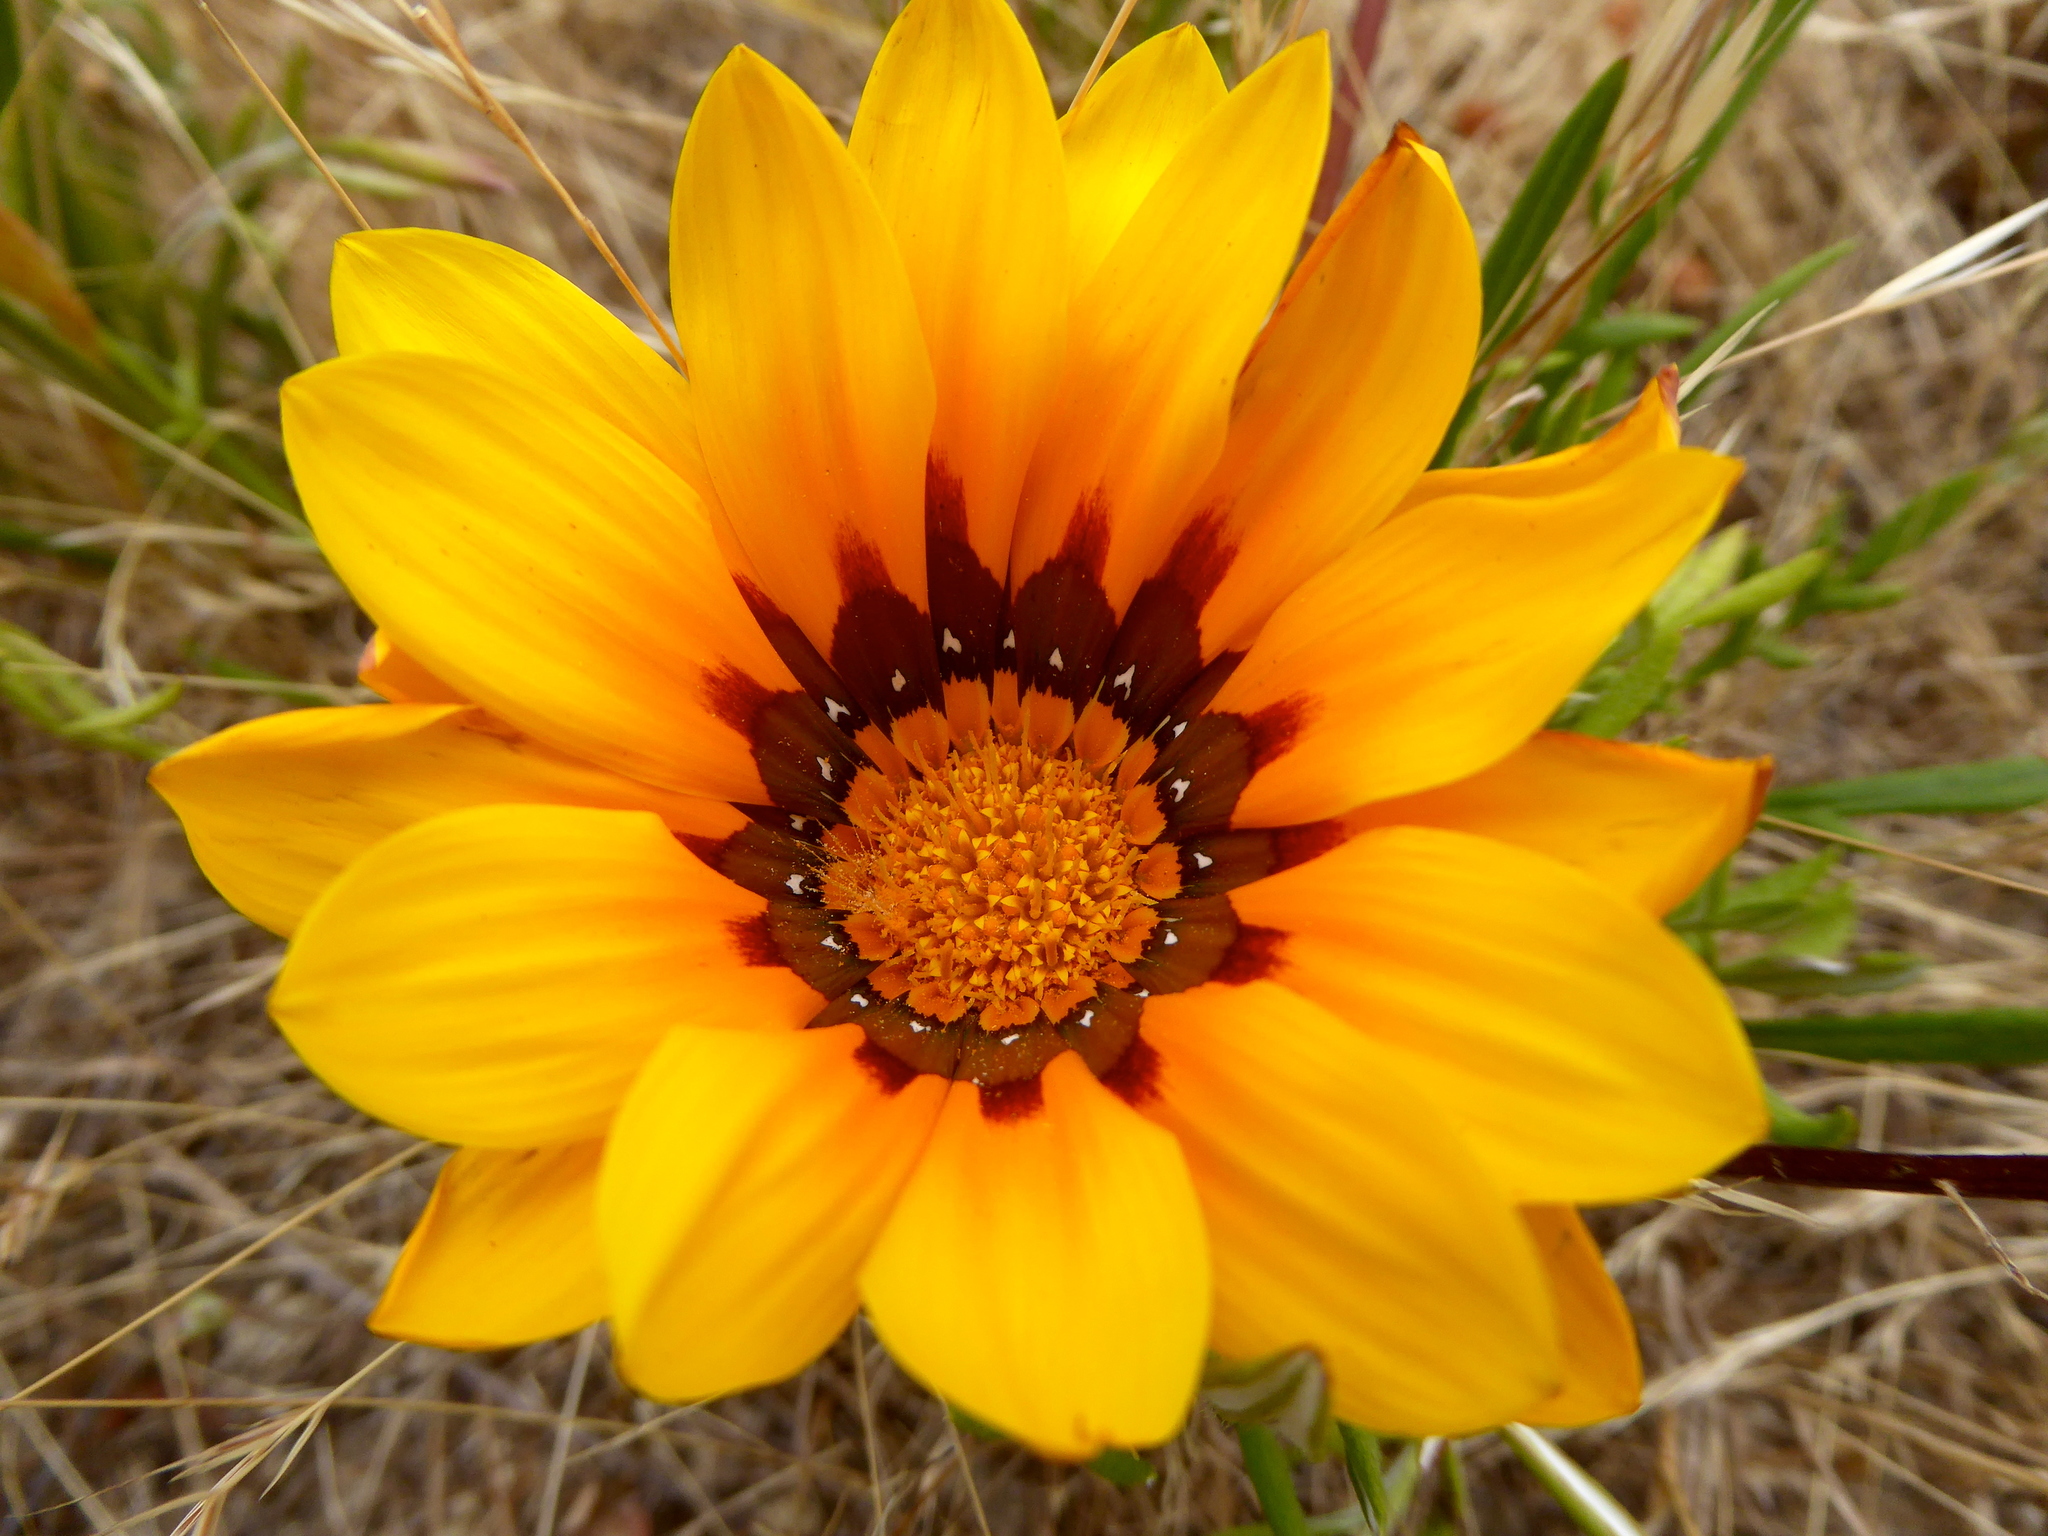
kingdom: Plantae
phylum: Tracheophyta
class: Magnoliopsida
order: Asterales
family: Asteraceae
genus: Gazania
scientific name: Gazania linearis
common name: Treasureflower
